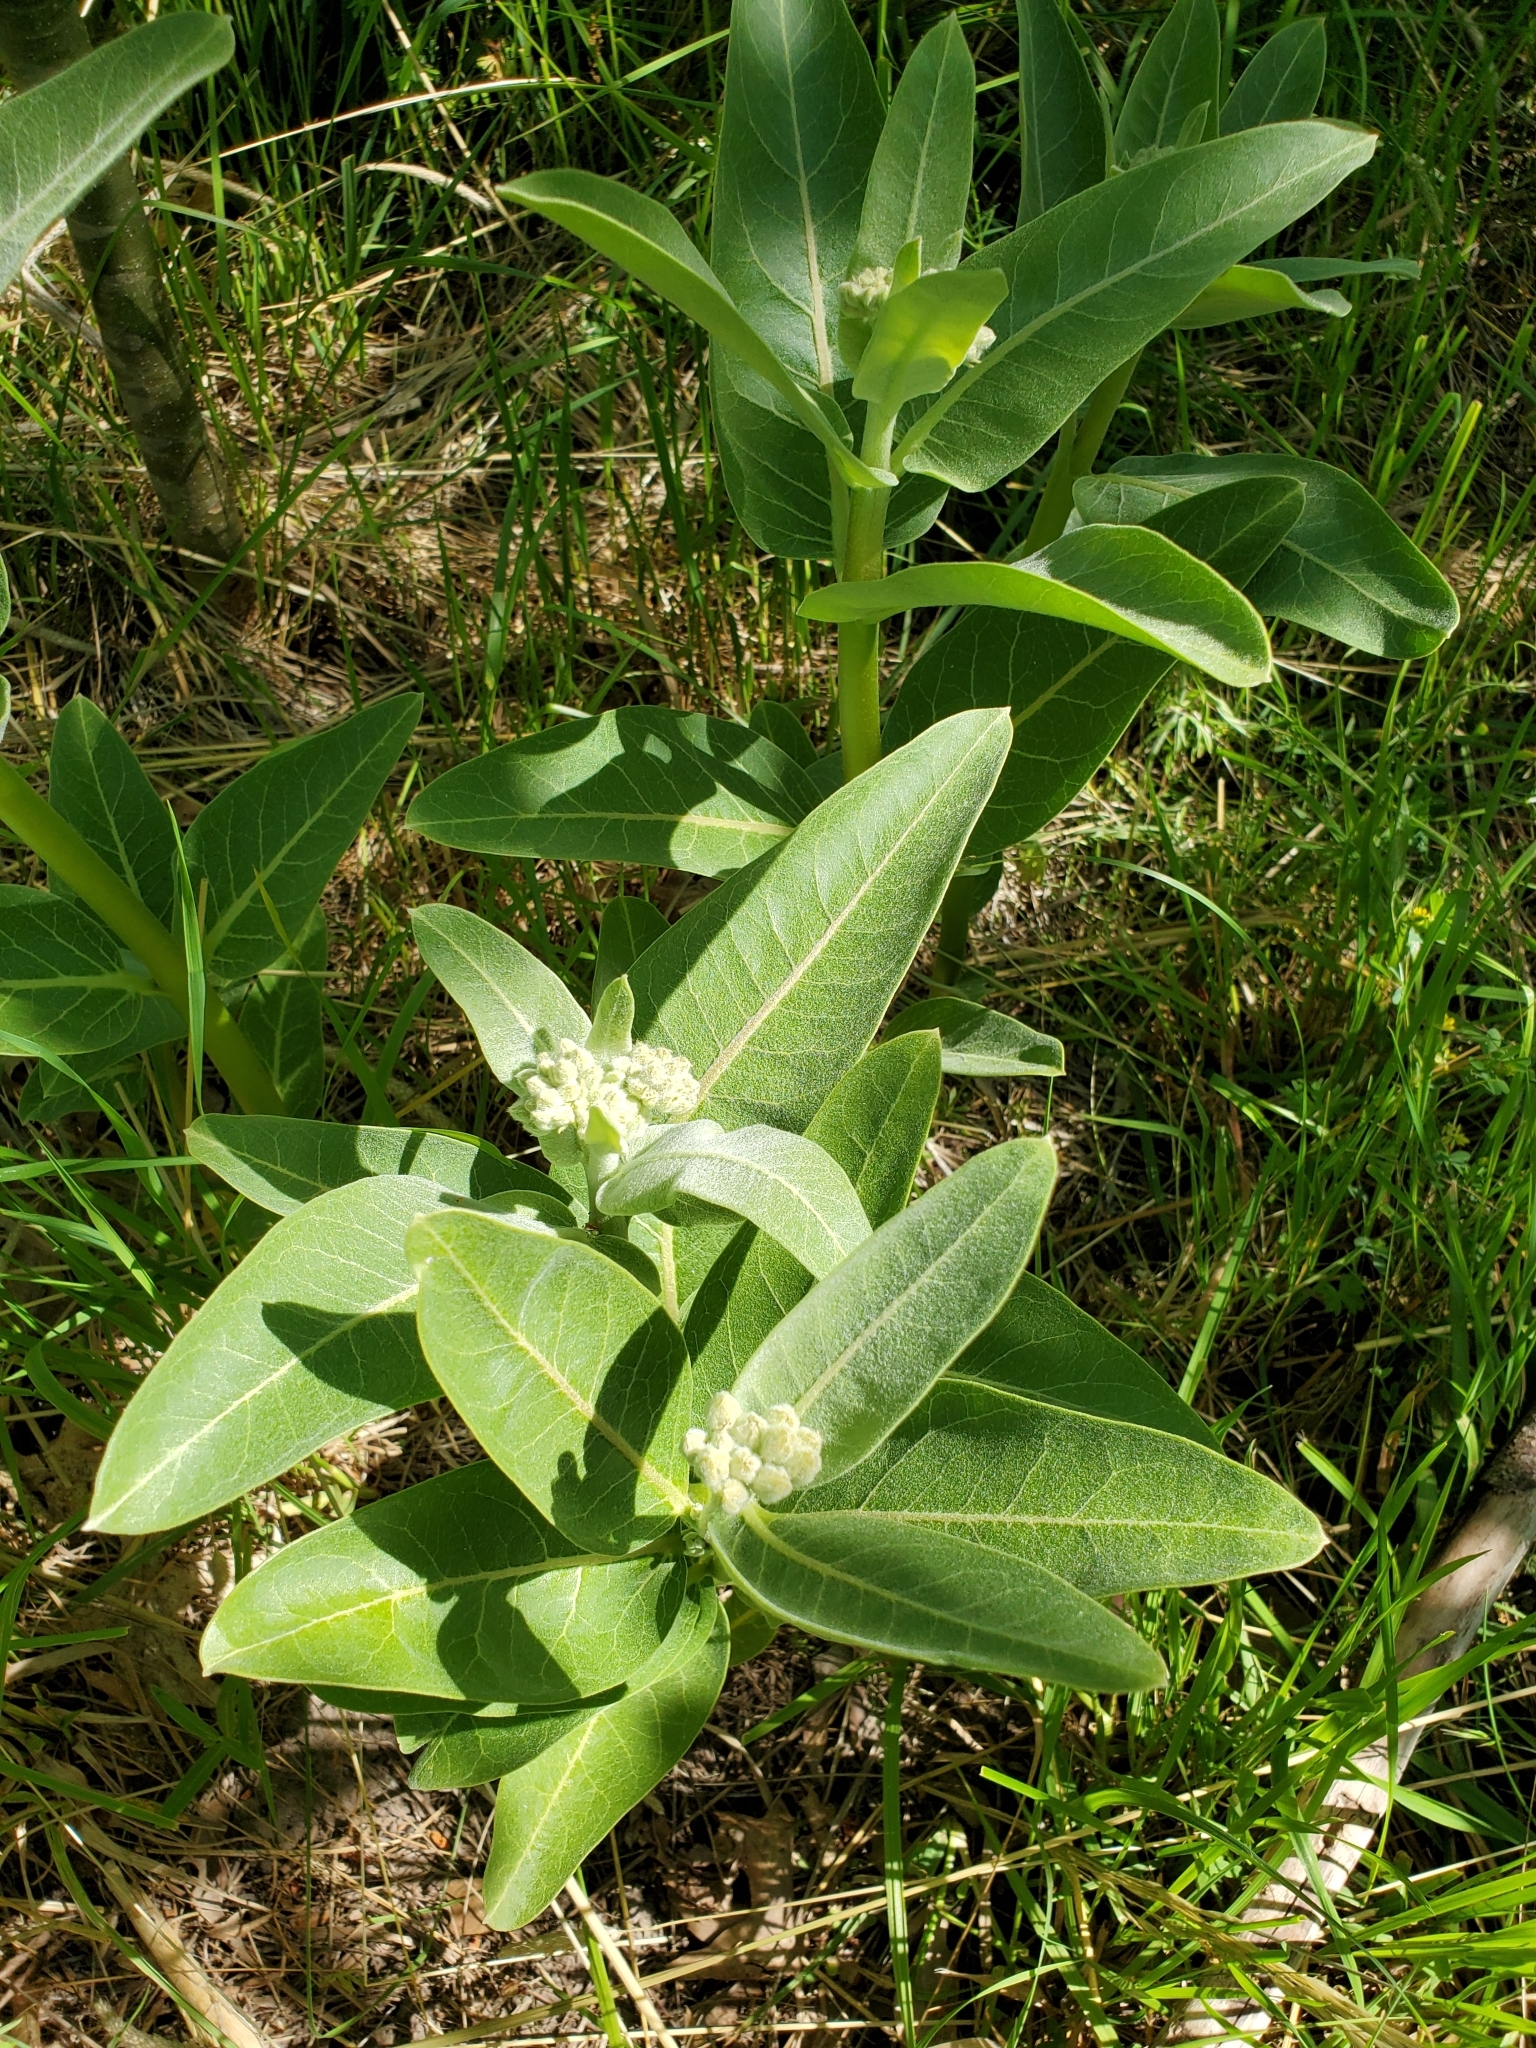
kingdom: Plantae
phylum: Tracheophyta
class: Magnoliopsida
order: Gentianales
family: Apocynaceae
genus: Asclepias
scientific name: Asclepias speciosa
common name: Showy milkweed
